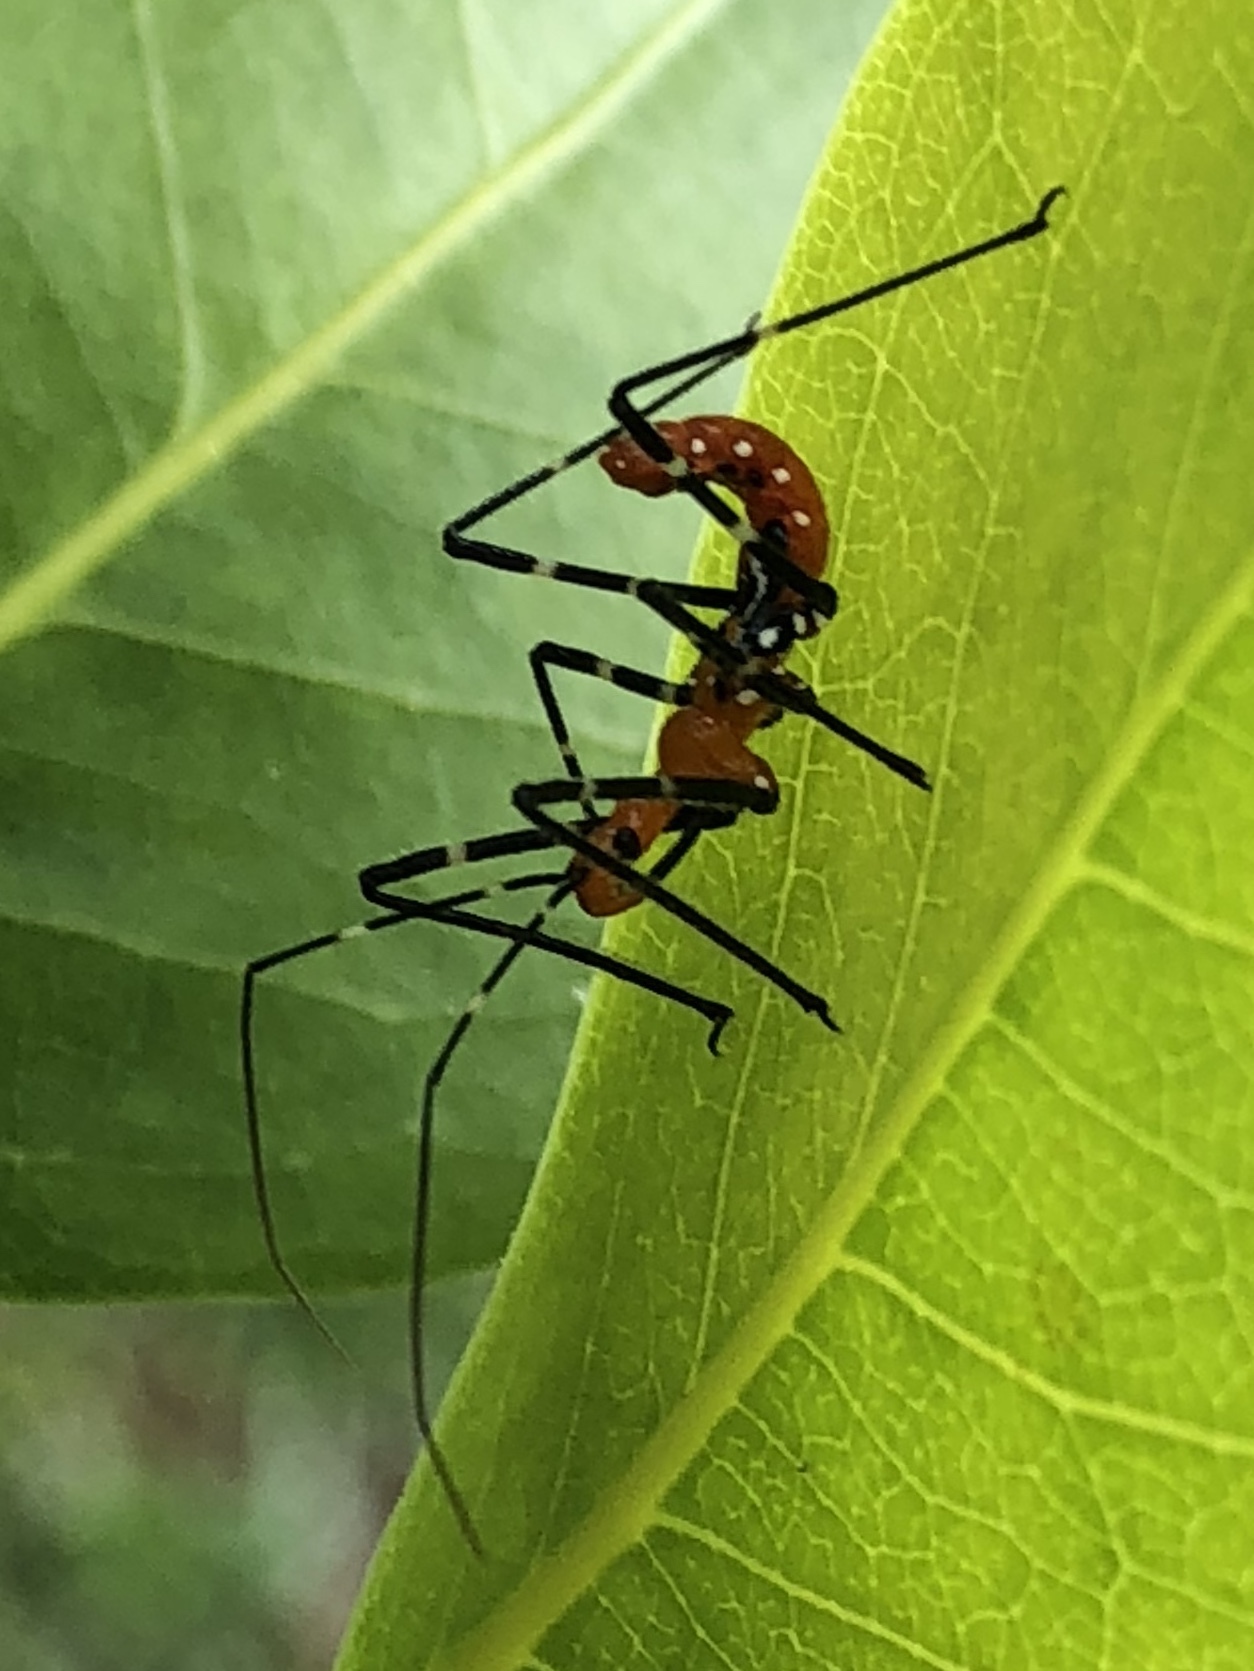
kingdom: Animalia
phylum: Arthropoda
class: Insecta
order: Hemiptera
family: Reduviidae
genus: Zelus
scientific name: Zelus longipes
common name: Milkweed assassin bug
